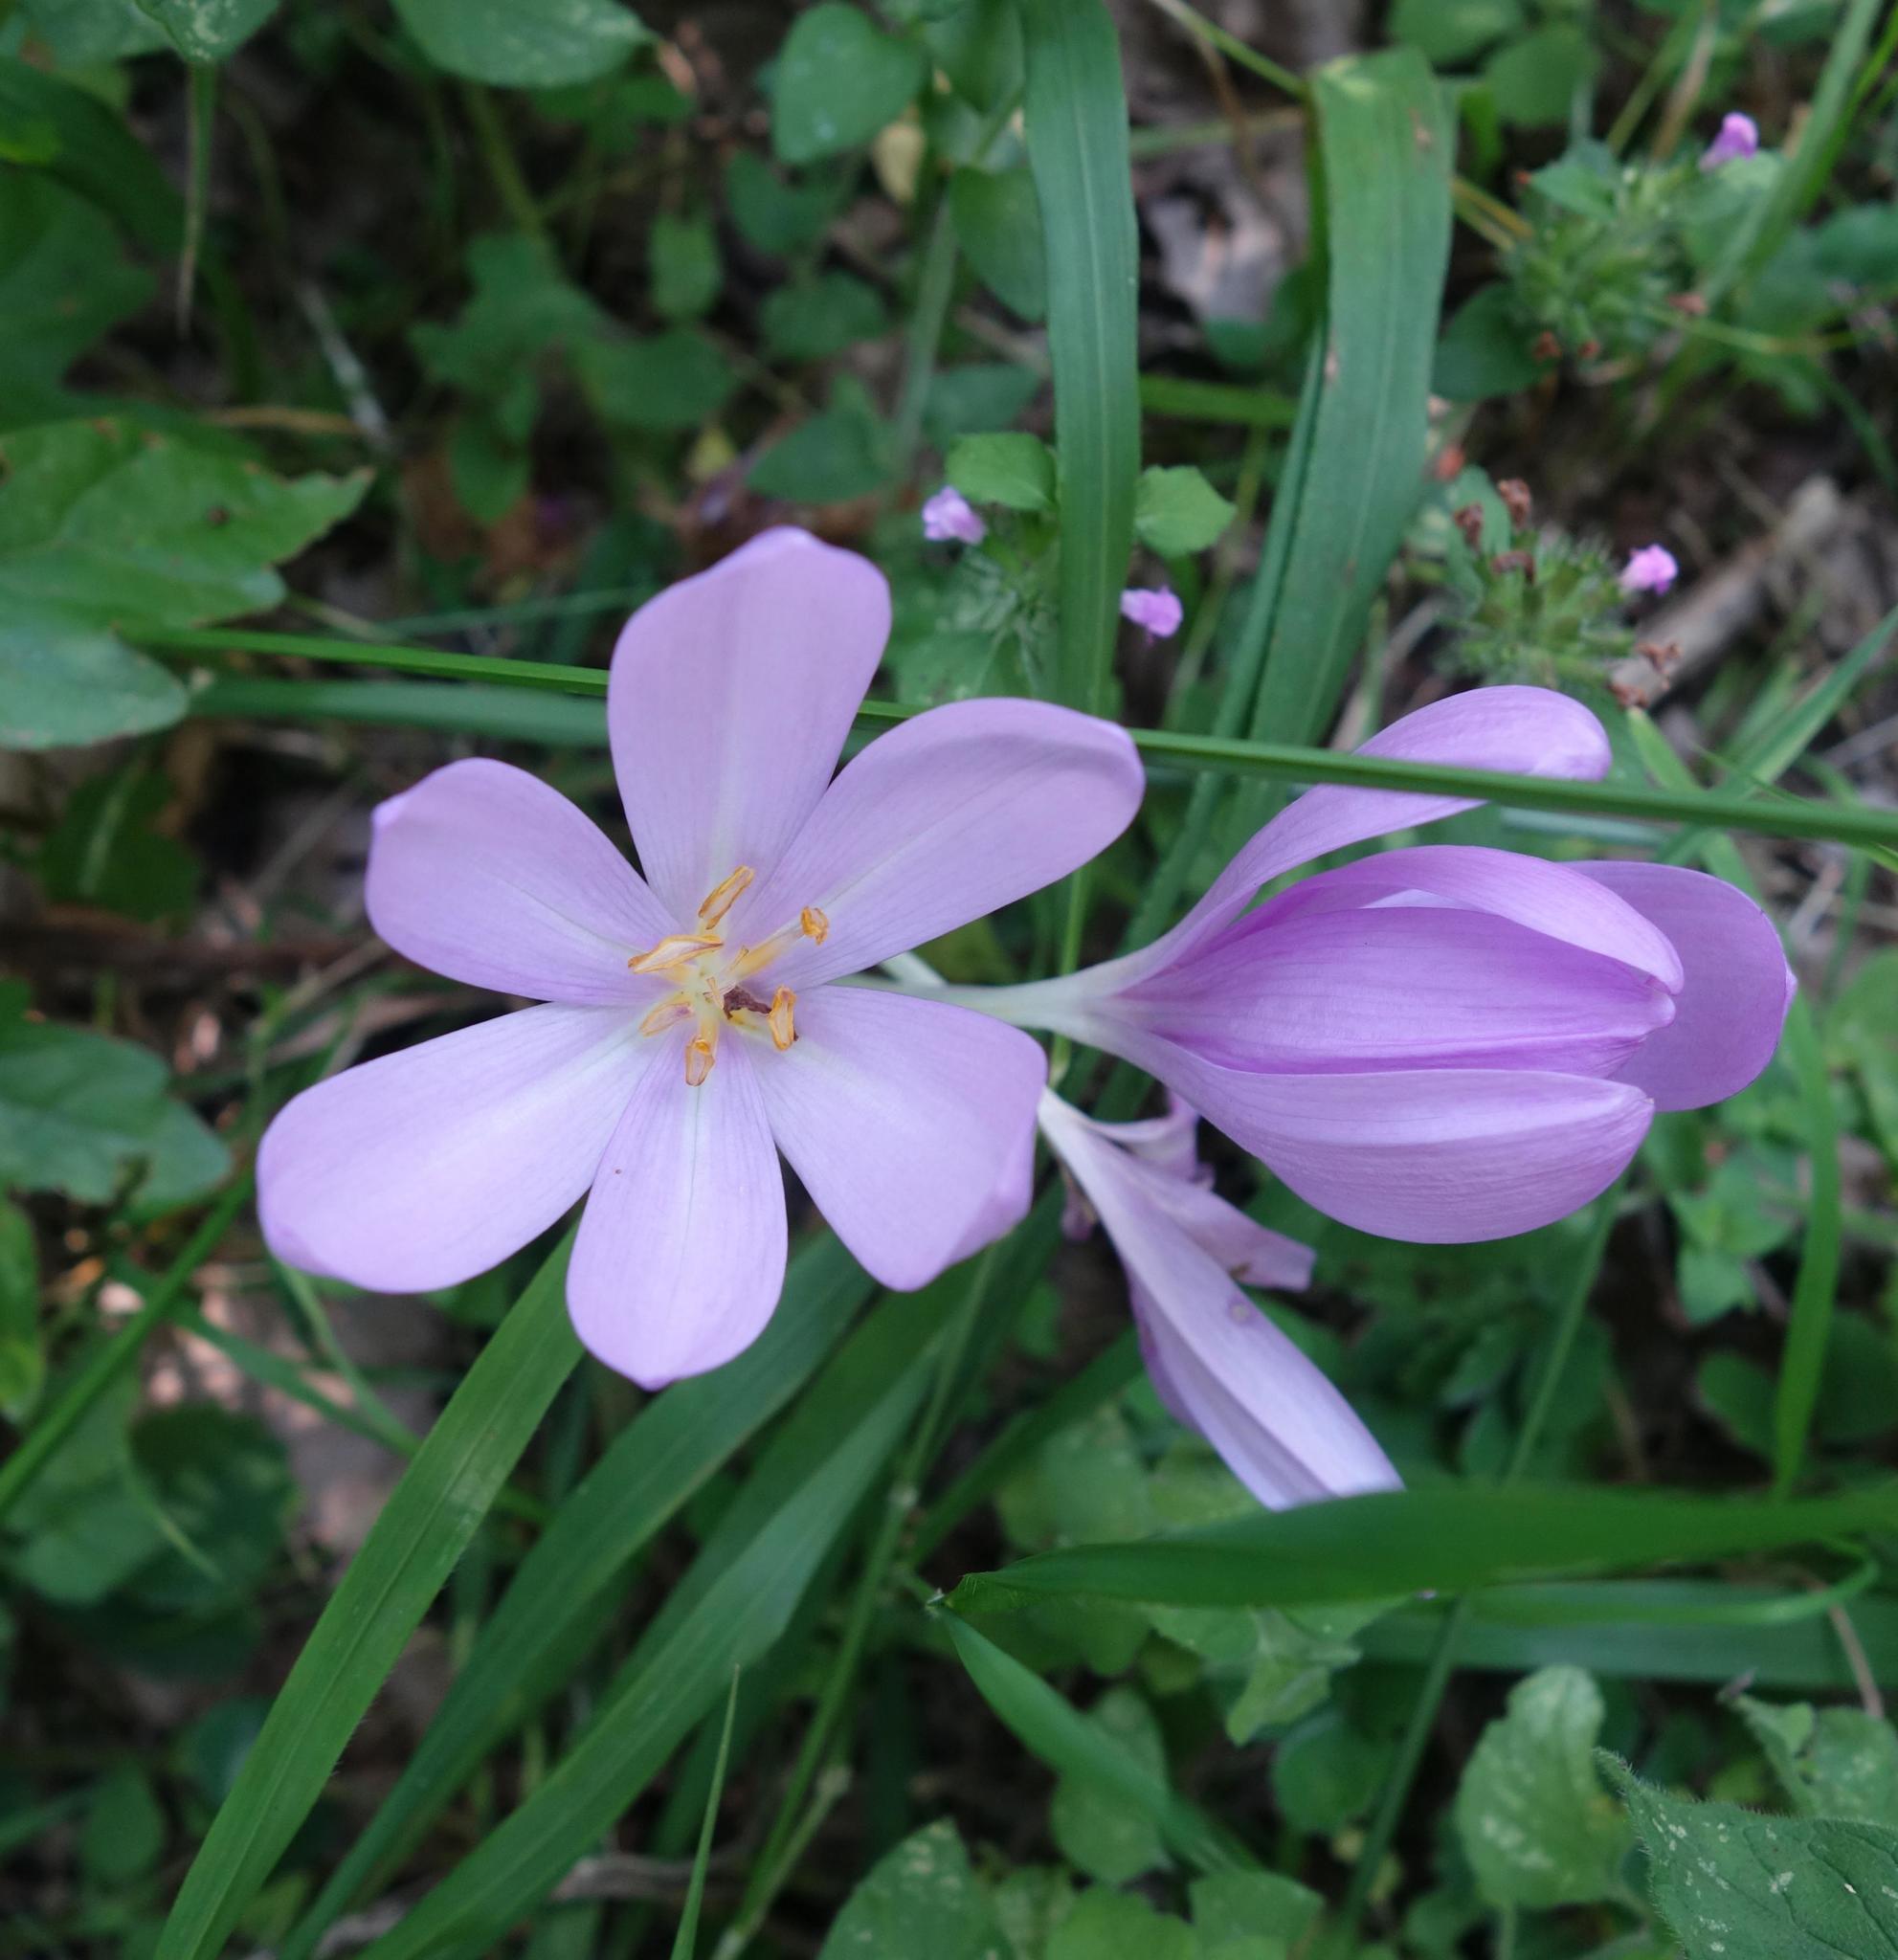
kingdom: Plantae
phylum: Tracheophyta
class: Liliopsida
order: Liliales
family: Colchicaceae
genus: Colchicum
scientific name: Colchicum autumnale
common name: Autumn crocus
